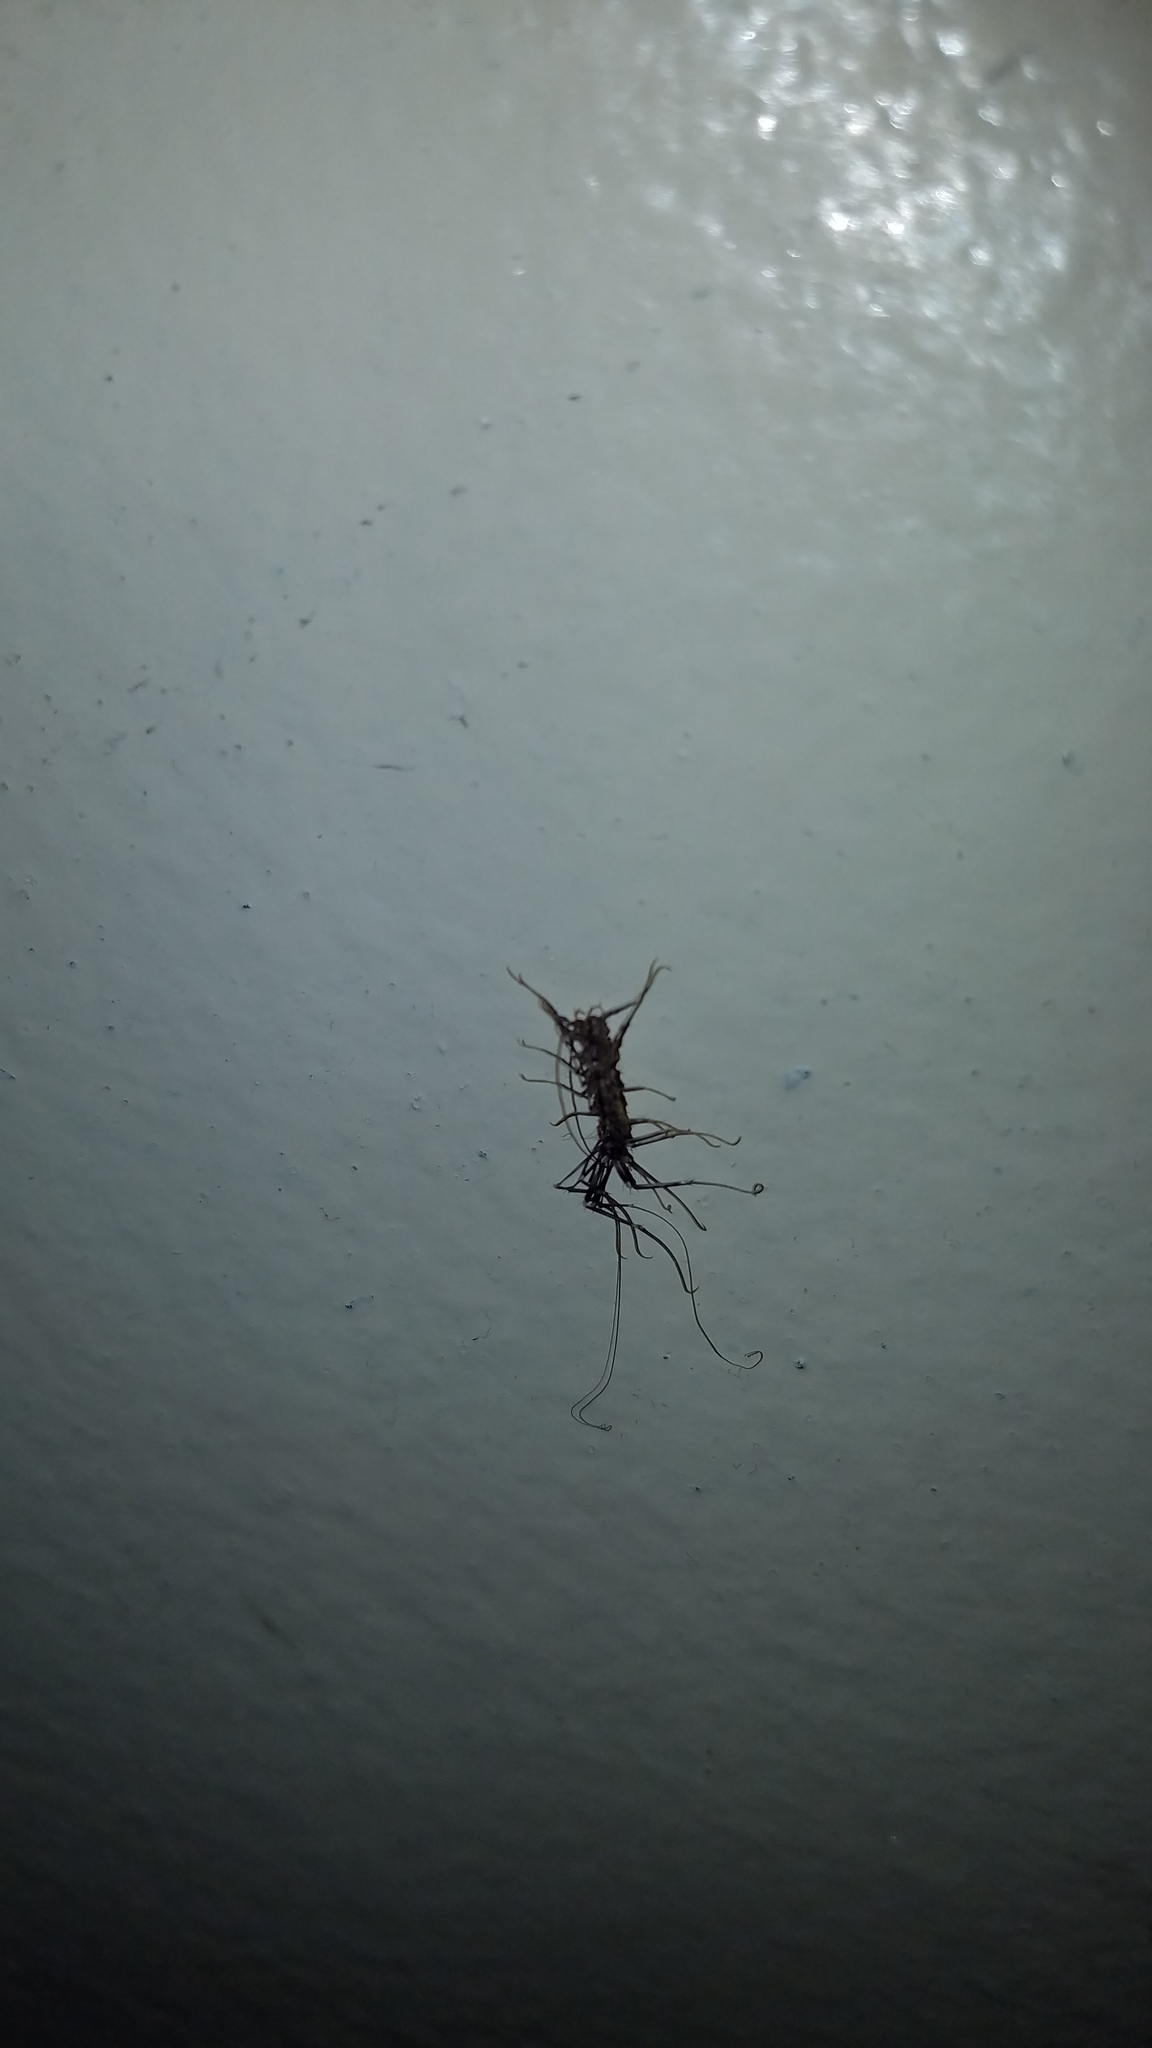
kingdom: Animalia
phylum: Arthropoda
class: Chilopoda
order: Scutigeromorpha
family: Scutigeridae
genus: Scutigera
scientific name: Scutigera coleoptrata
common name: House centipede
